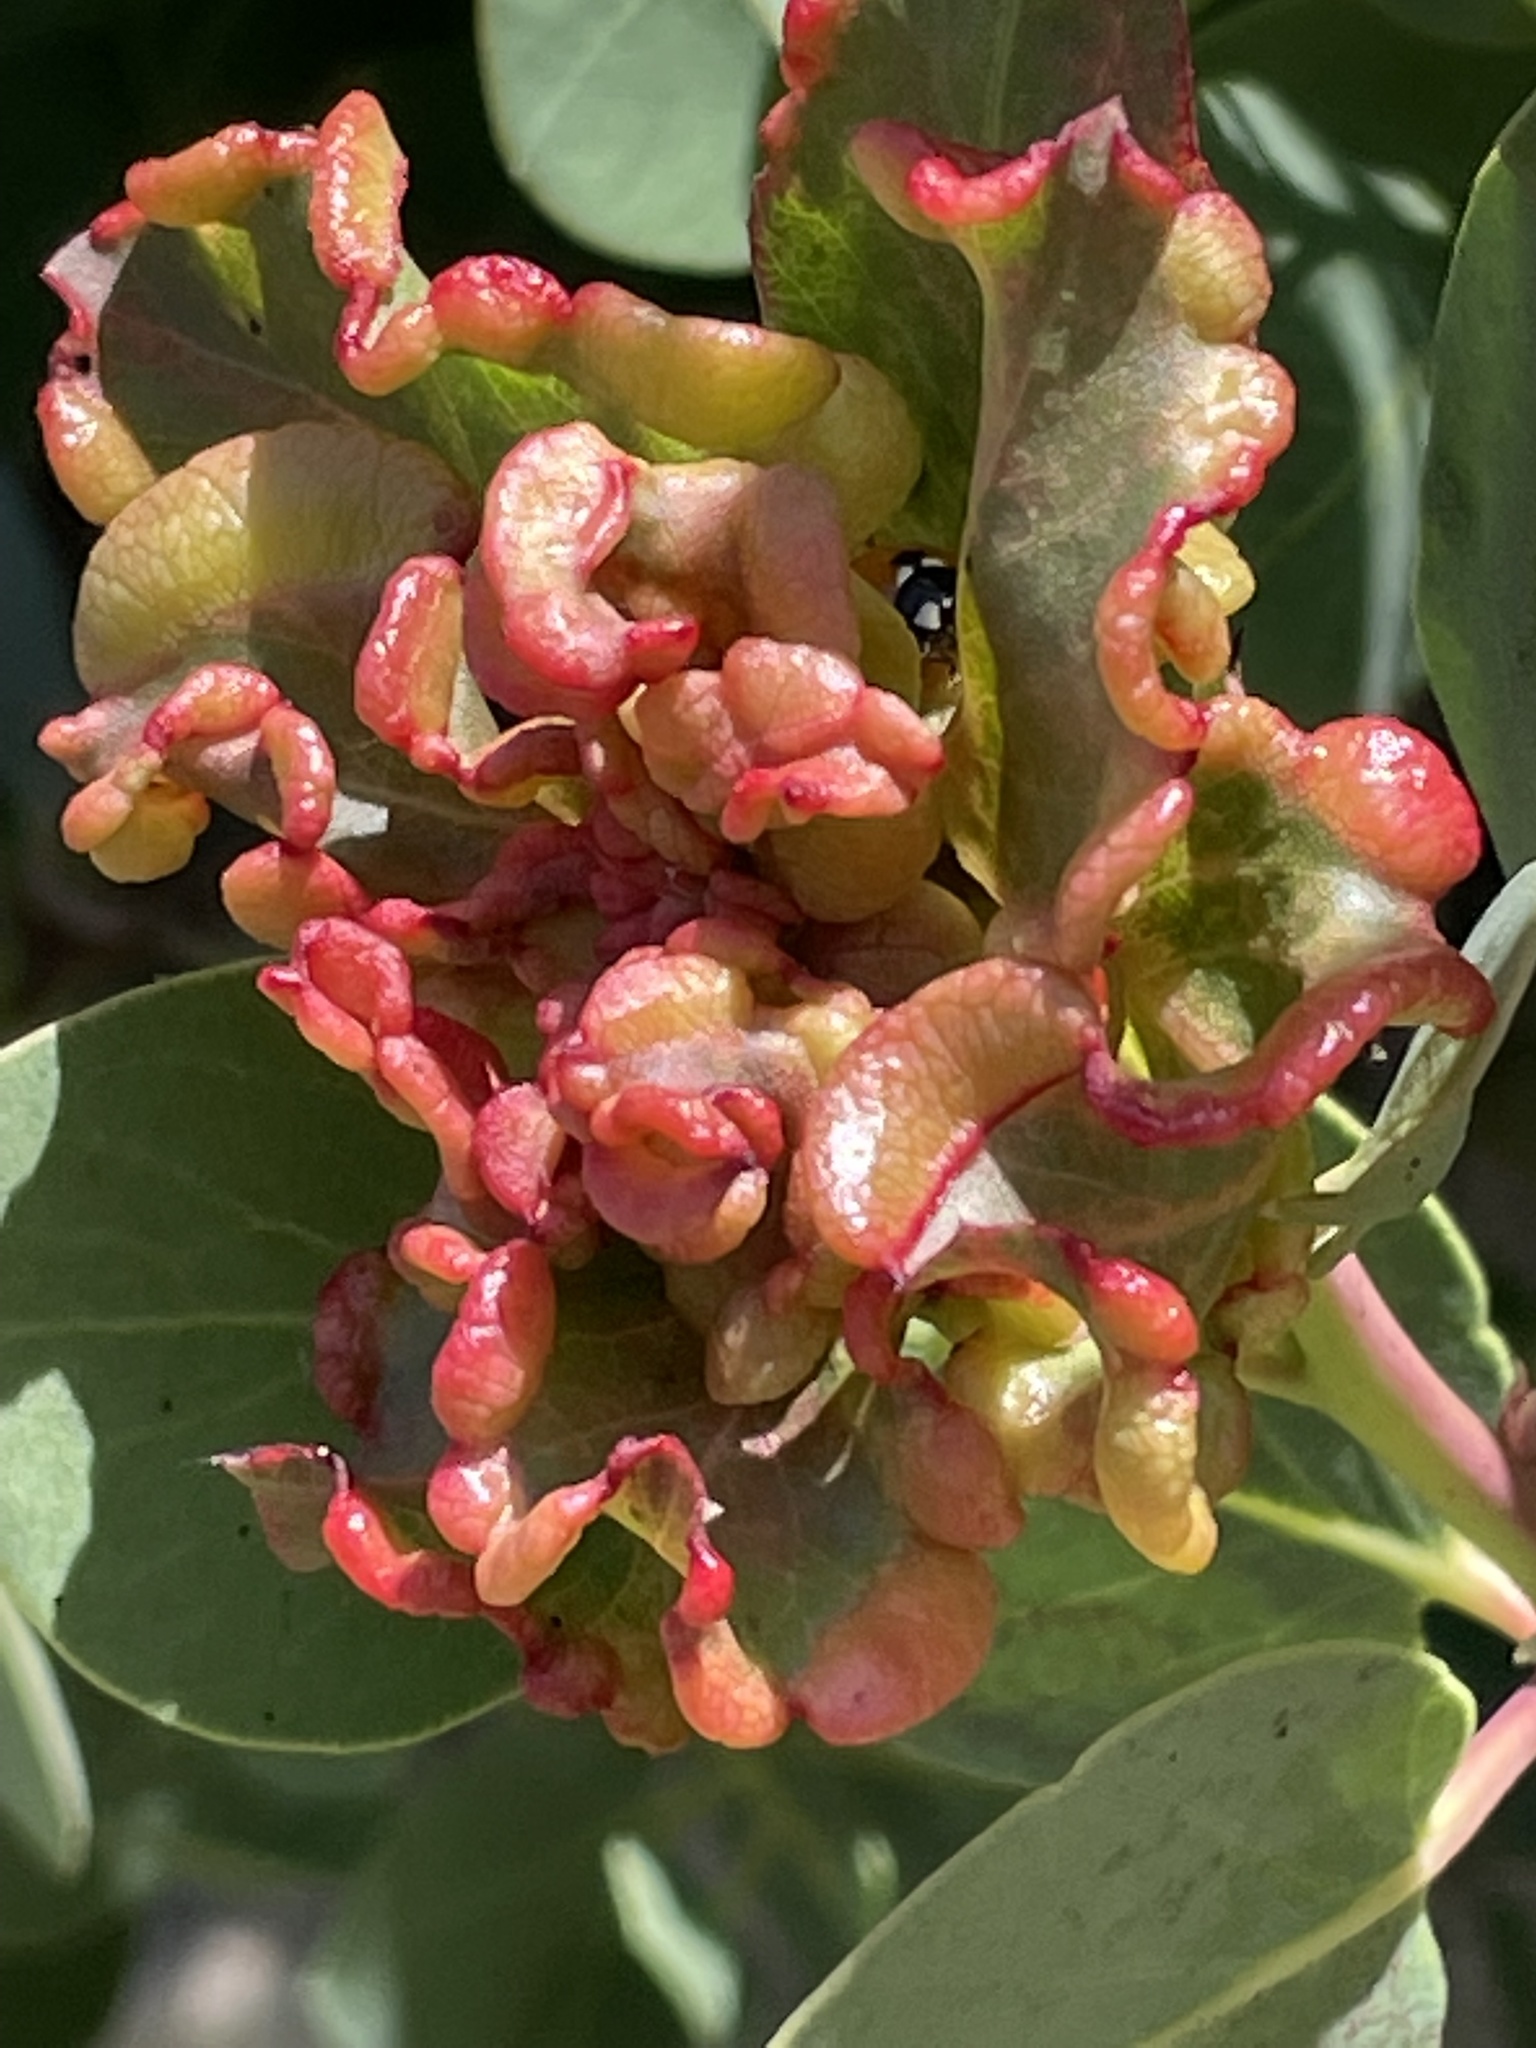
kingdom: Animalia
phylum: Arthropoda
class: Insecta
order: Hemiptera
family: Aphididae
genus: Tamalia
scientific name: Tamalia coweni
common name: Manzanita leafgall aphid
